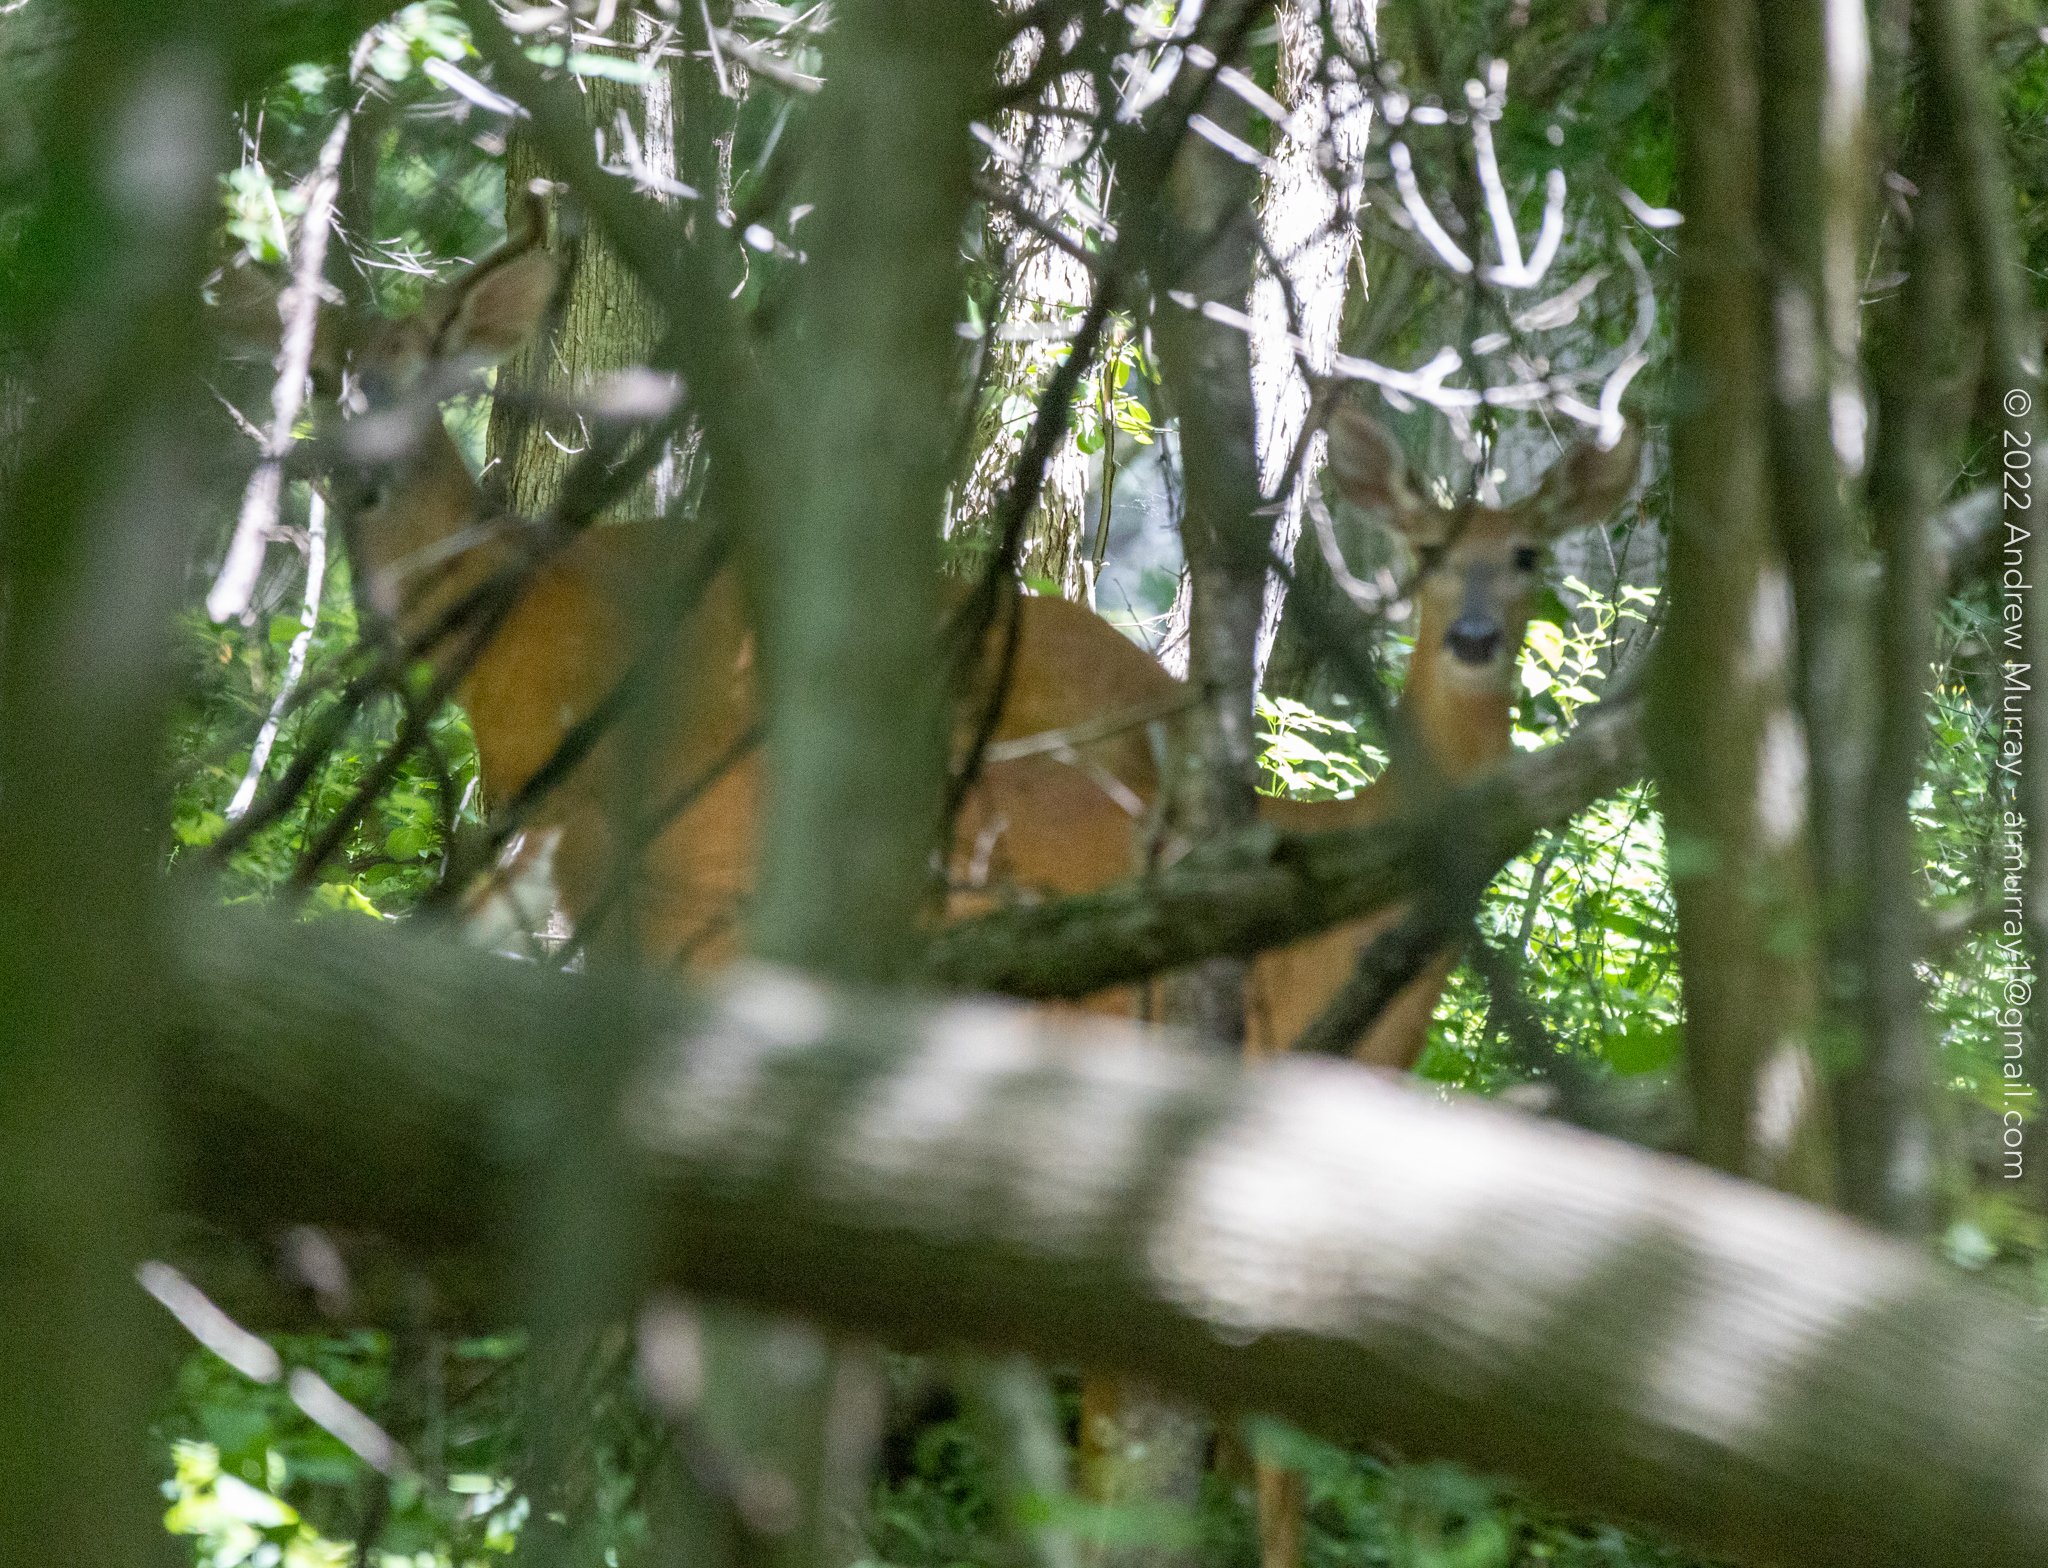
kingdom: Animalia
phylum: Chordata
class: Mammalia
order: Artiodactyla
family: Cervidae
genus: Odocoileus
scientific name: Odocoileus virginianus
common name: White-tailed deer
